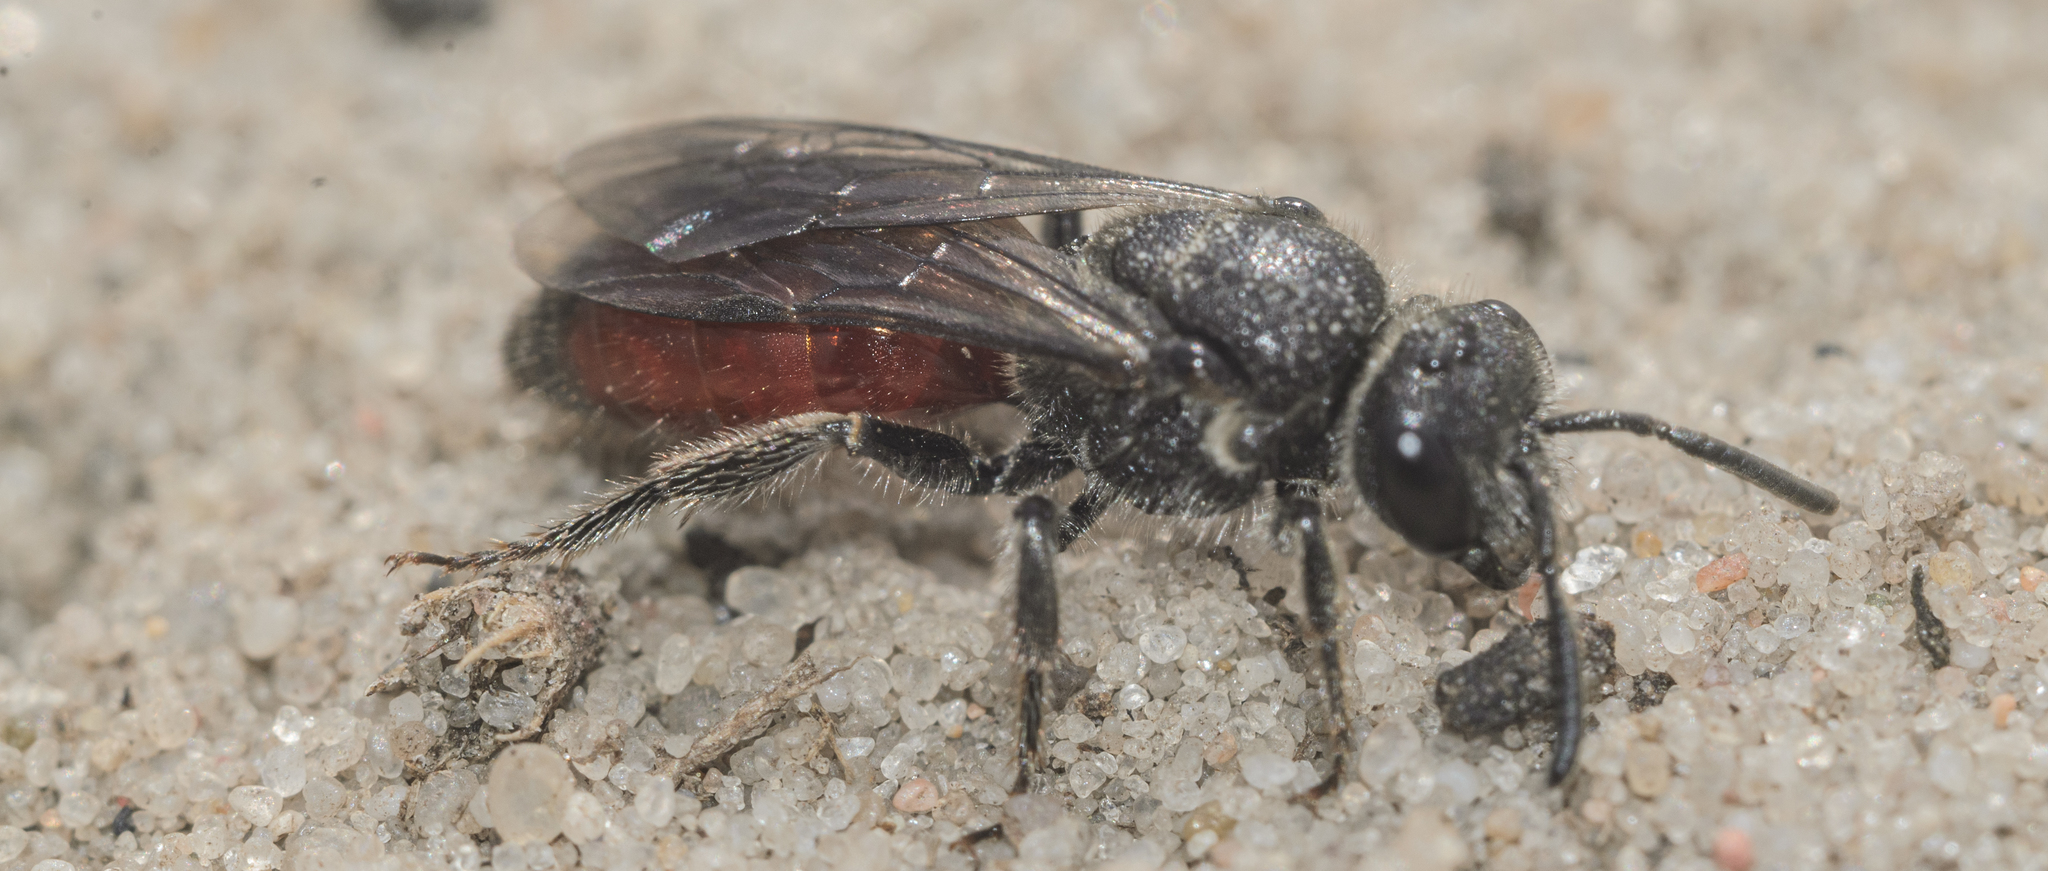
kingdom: Animalia
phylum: Arthropoda
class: Insecta
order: Hymenoptera
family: Halictidae
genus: Sphecodes
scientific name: Sphecodes
